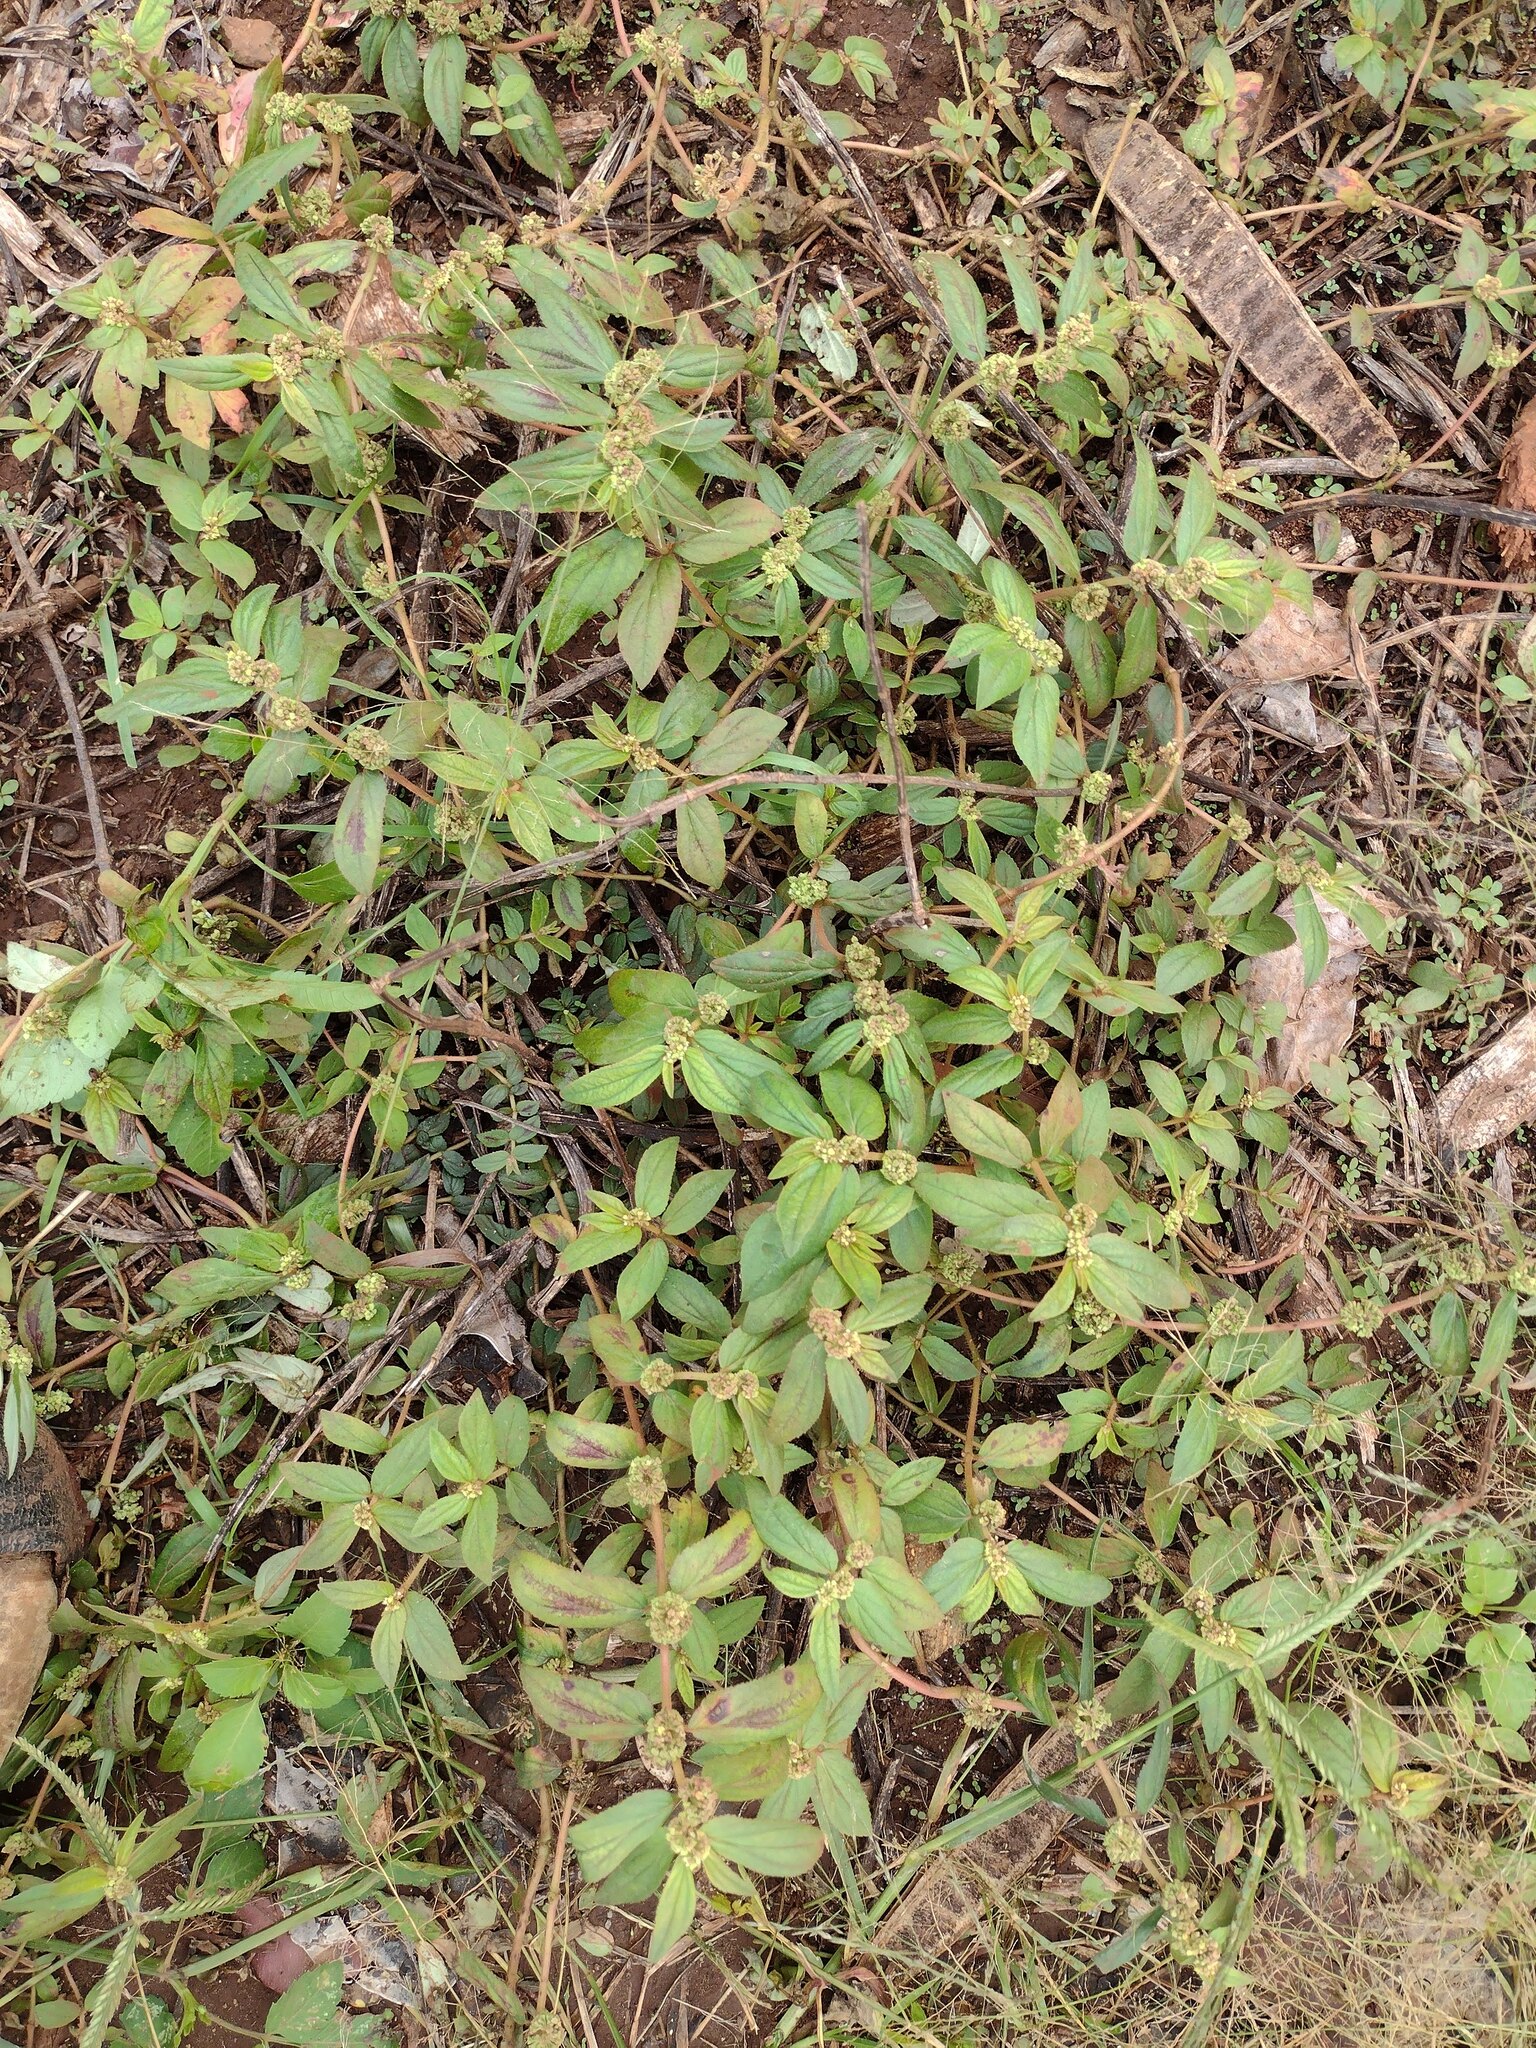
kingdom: Plantae
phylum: Tracheophyta
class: Magnoliopsida
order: Malpighiales
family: Euphorbiaceae
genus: Euphorbia
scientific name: Euphorbia hirta
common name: Pillpod sandmat
